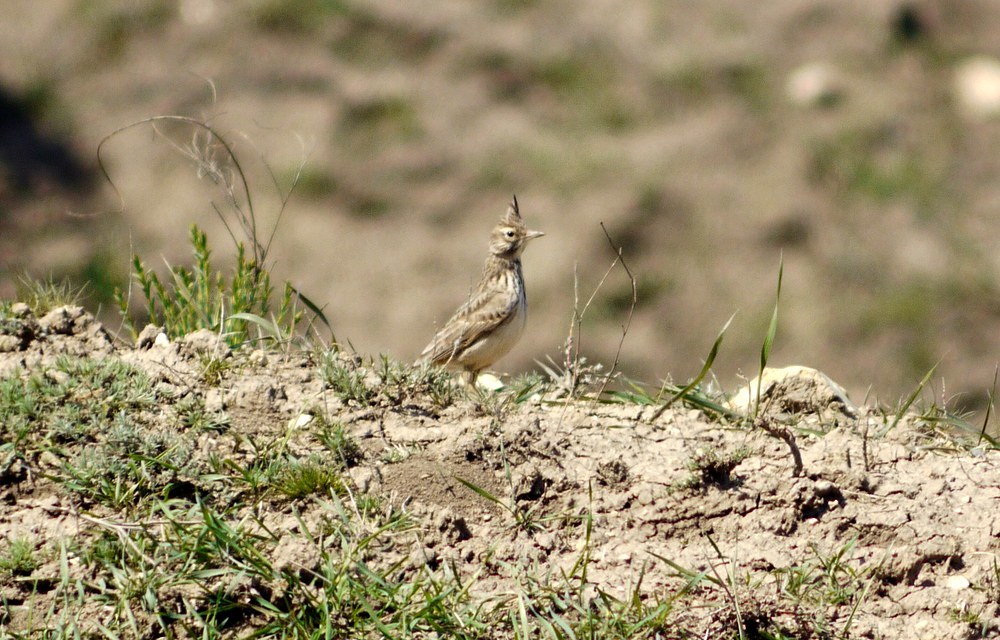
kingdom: Animalia
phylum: Chordata
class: Aves
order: Passeriformes
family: Alaudidae
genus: Galerida
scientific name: Galerida cristata
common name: Crested lark
